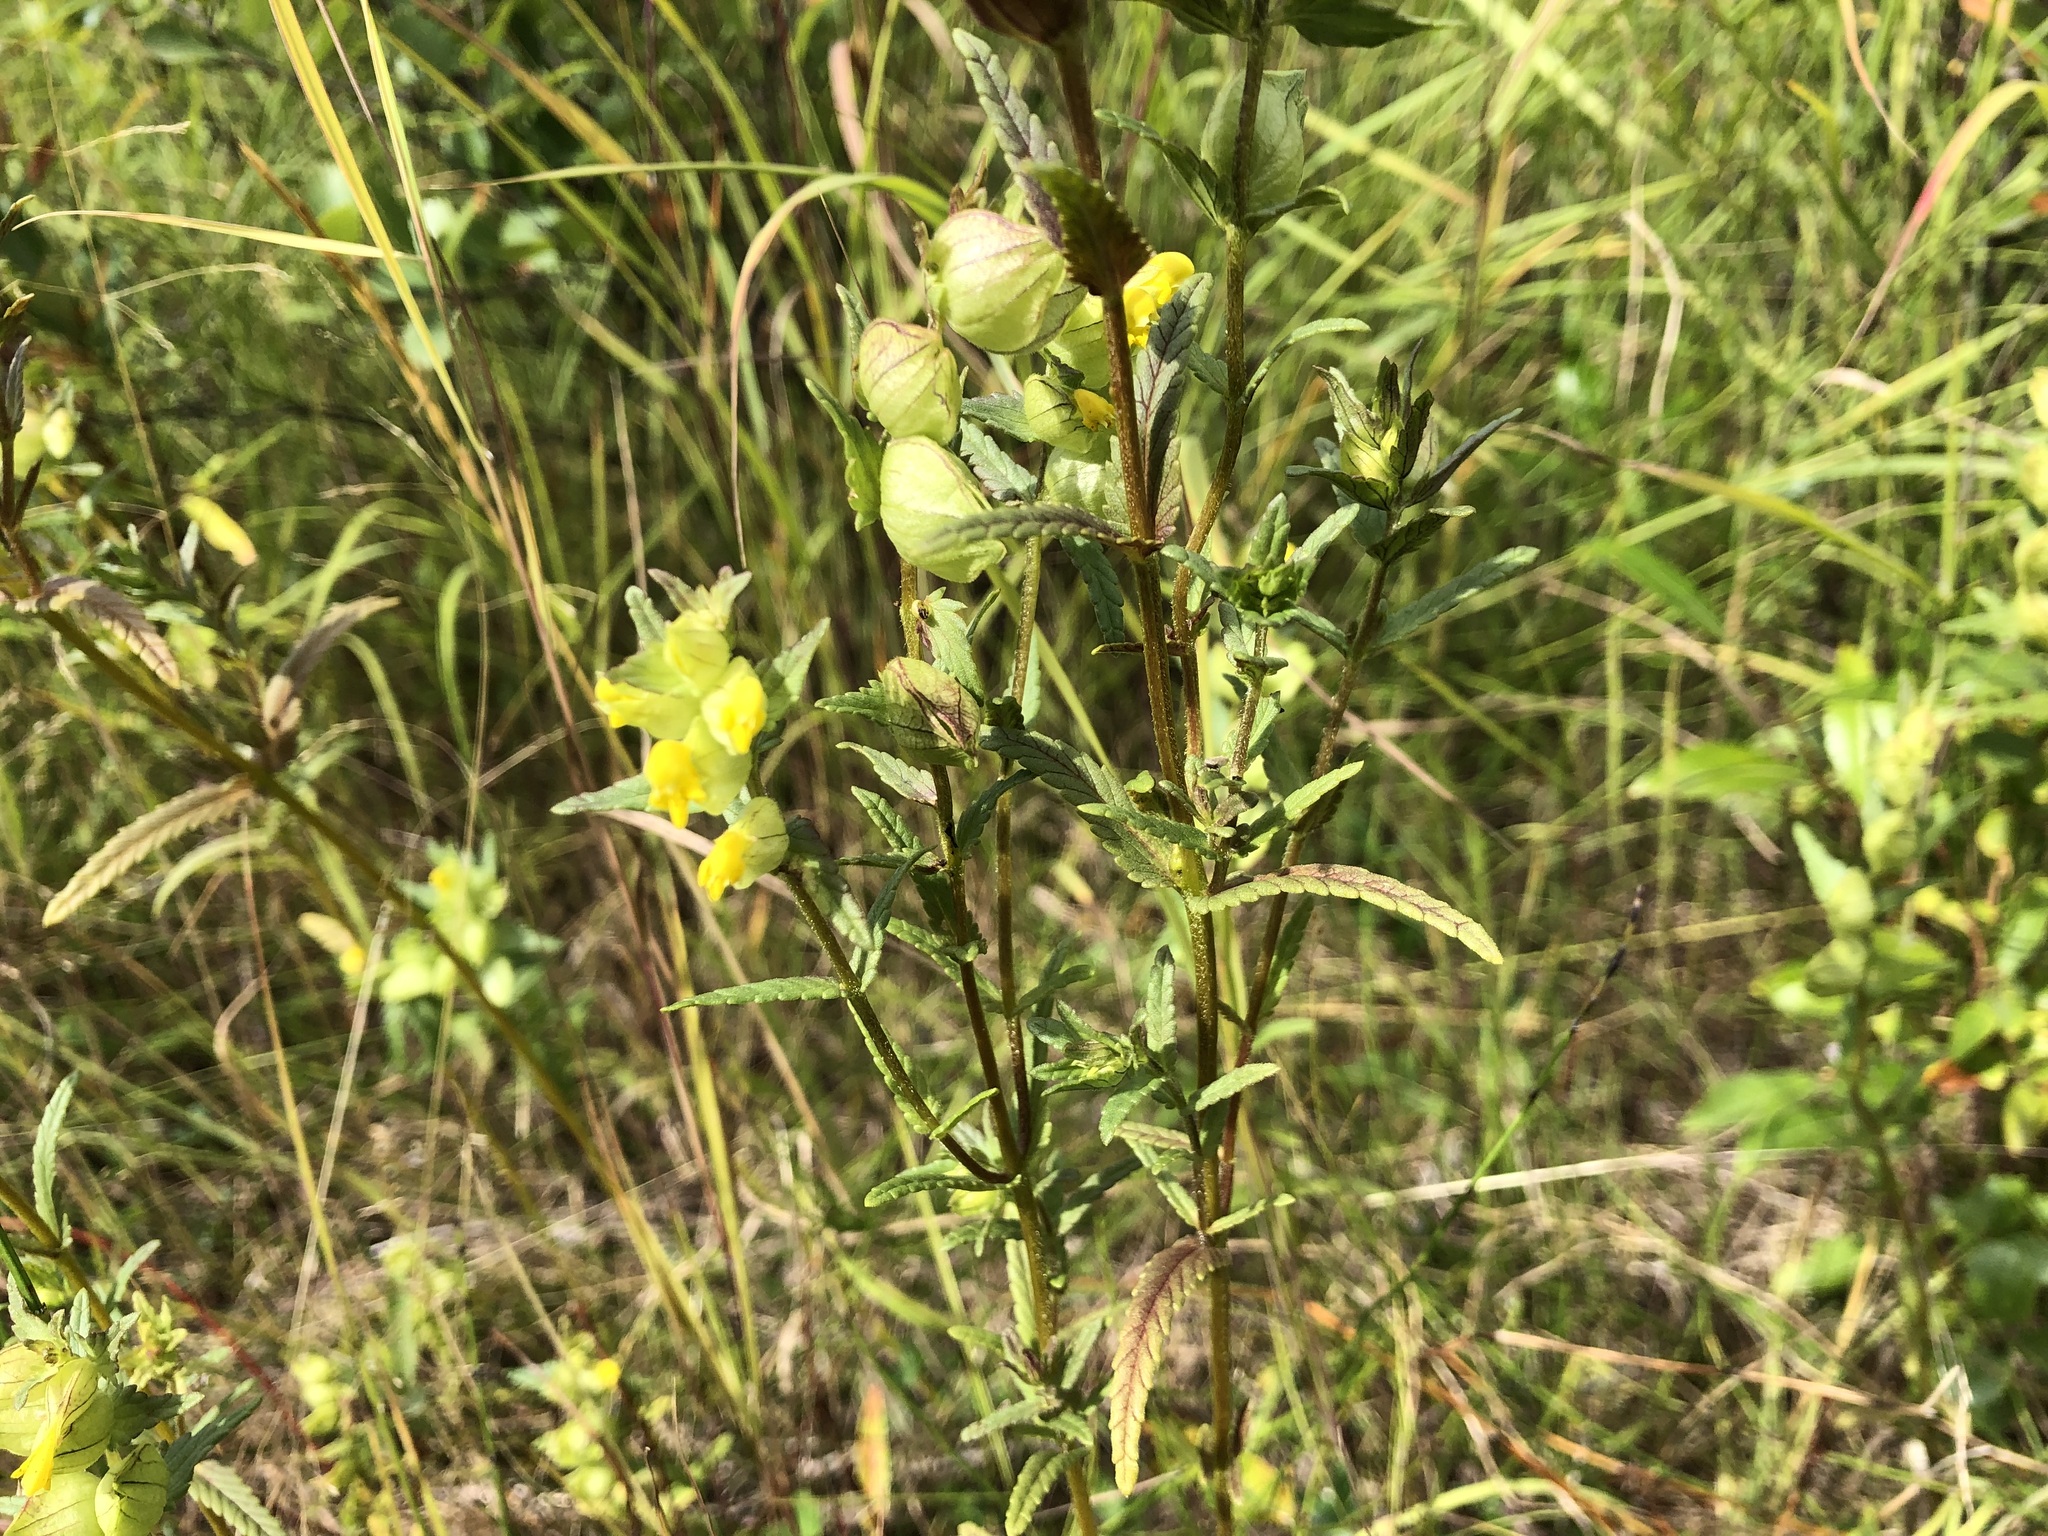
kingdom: Plantae
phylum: Tracheophyta
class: Magnoliopsida
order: Lamiales
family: Orobanchaceae
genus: Rhinanthus
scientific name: Rhinanthus minor
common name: Yellow-rattle
